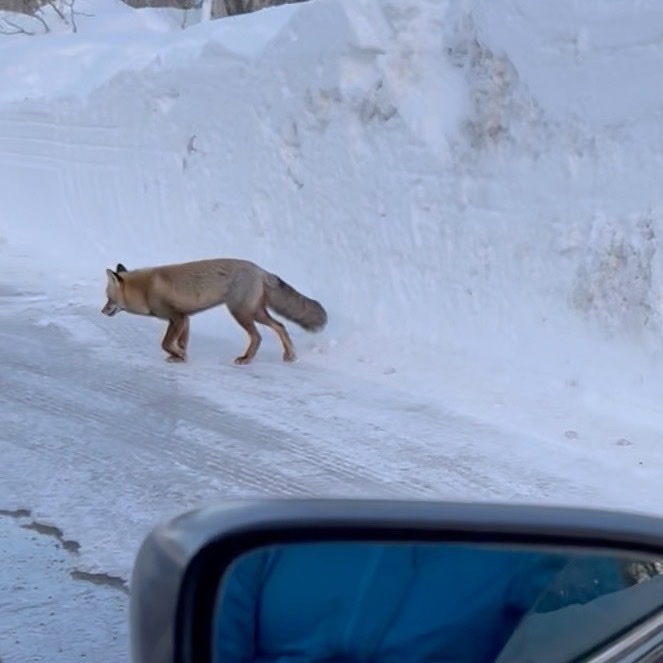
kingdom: Animalia
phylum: Chordata
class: Mammalia
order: Carnivora
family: Canidae
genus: Vulpes
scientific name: Vulpes vulpes
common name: Red fox
